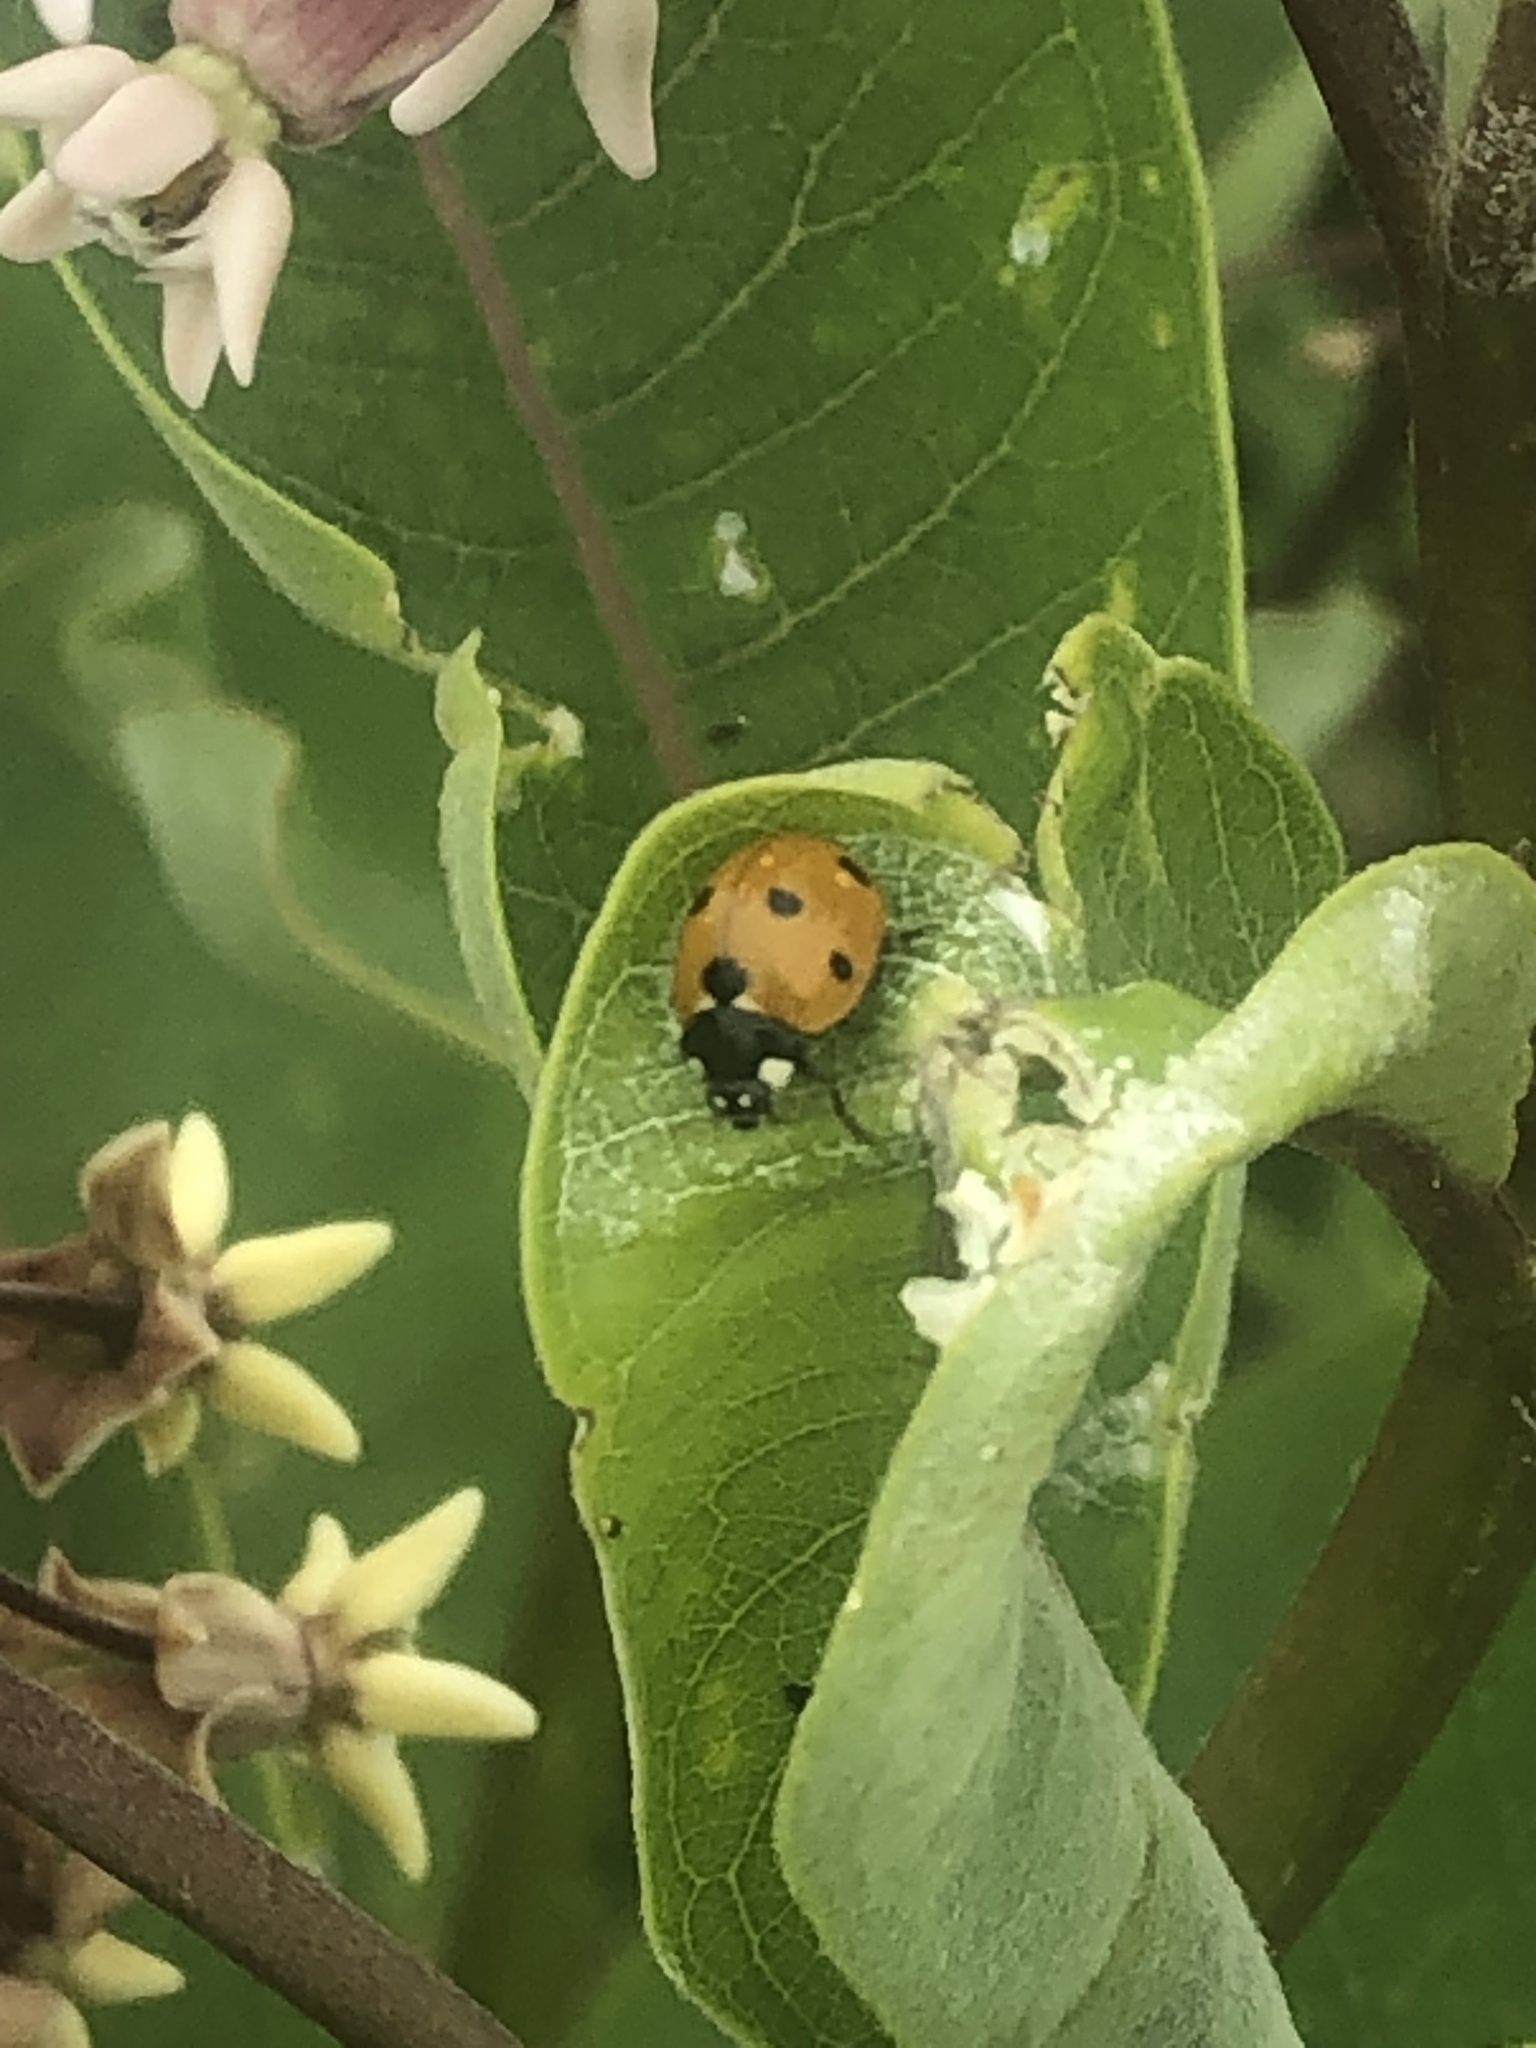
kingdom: Animalia
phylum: Arthropoda
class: Insecta
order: Coleoptera
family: Coccinellidae
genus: Coccinella
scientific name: Coccinella septempunctata
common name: Sevenspotted lady beetle
